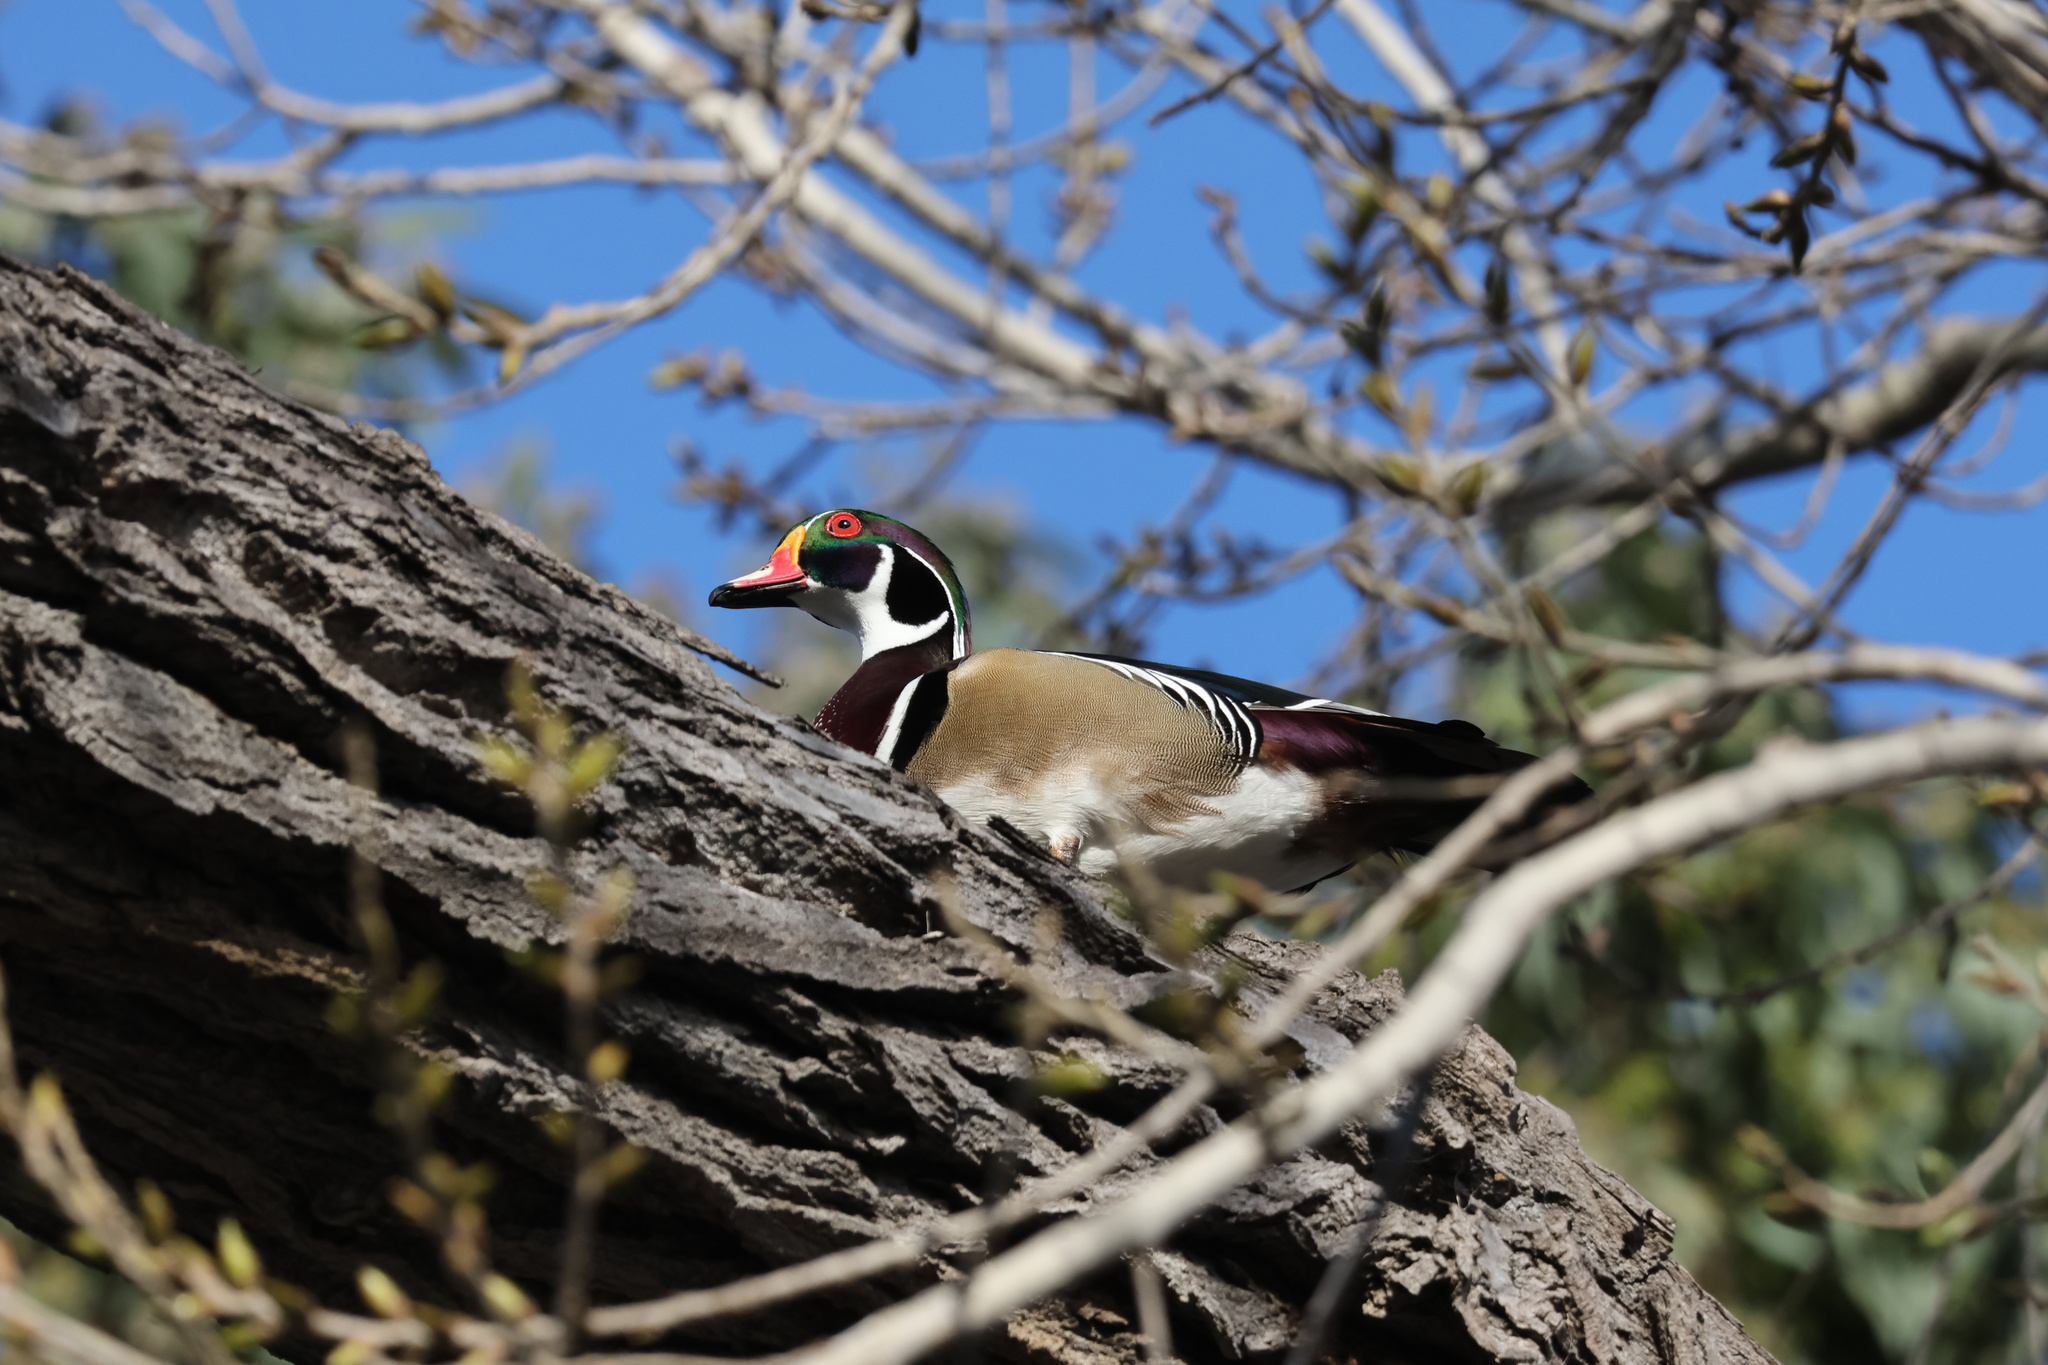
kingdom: Animalia
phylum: Chordata
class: Aves
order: Anseriformes
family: Anatidae
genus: Aix
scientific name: Aix sponsa
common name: Wood duck
